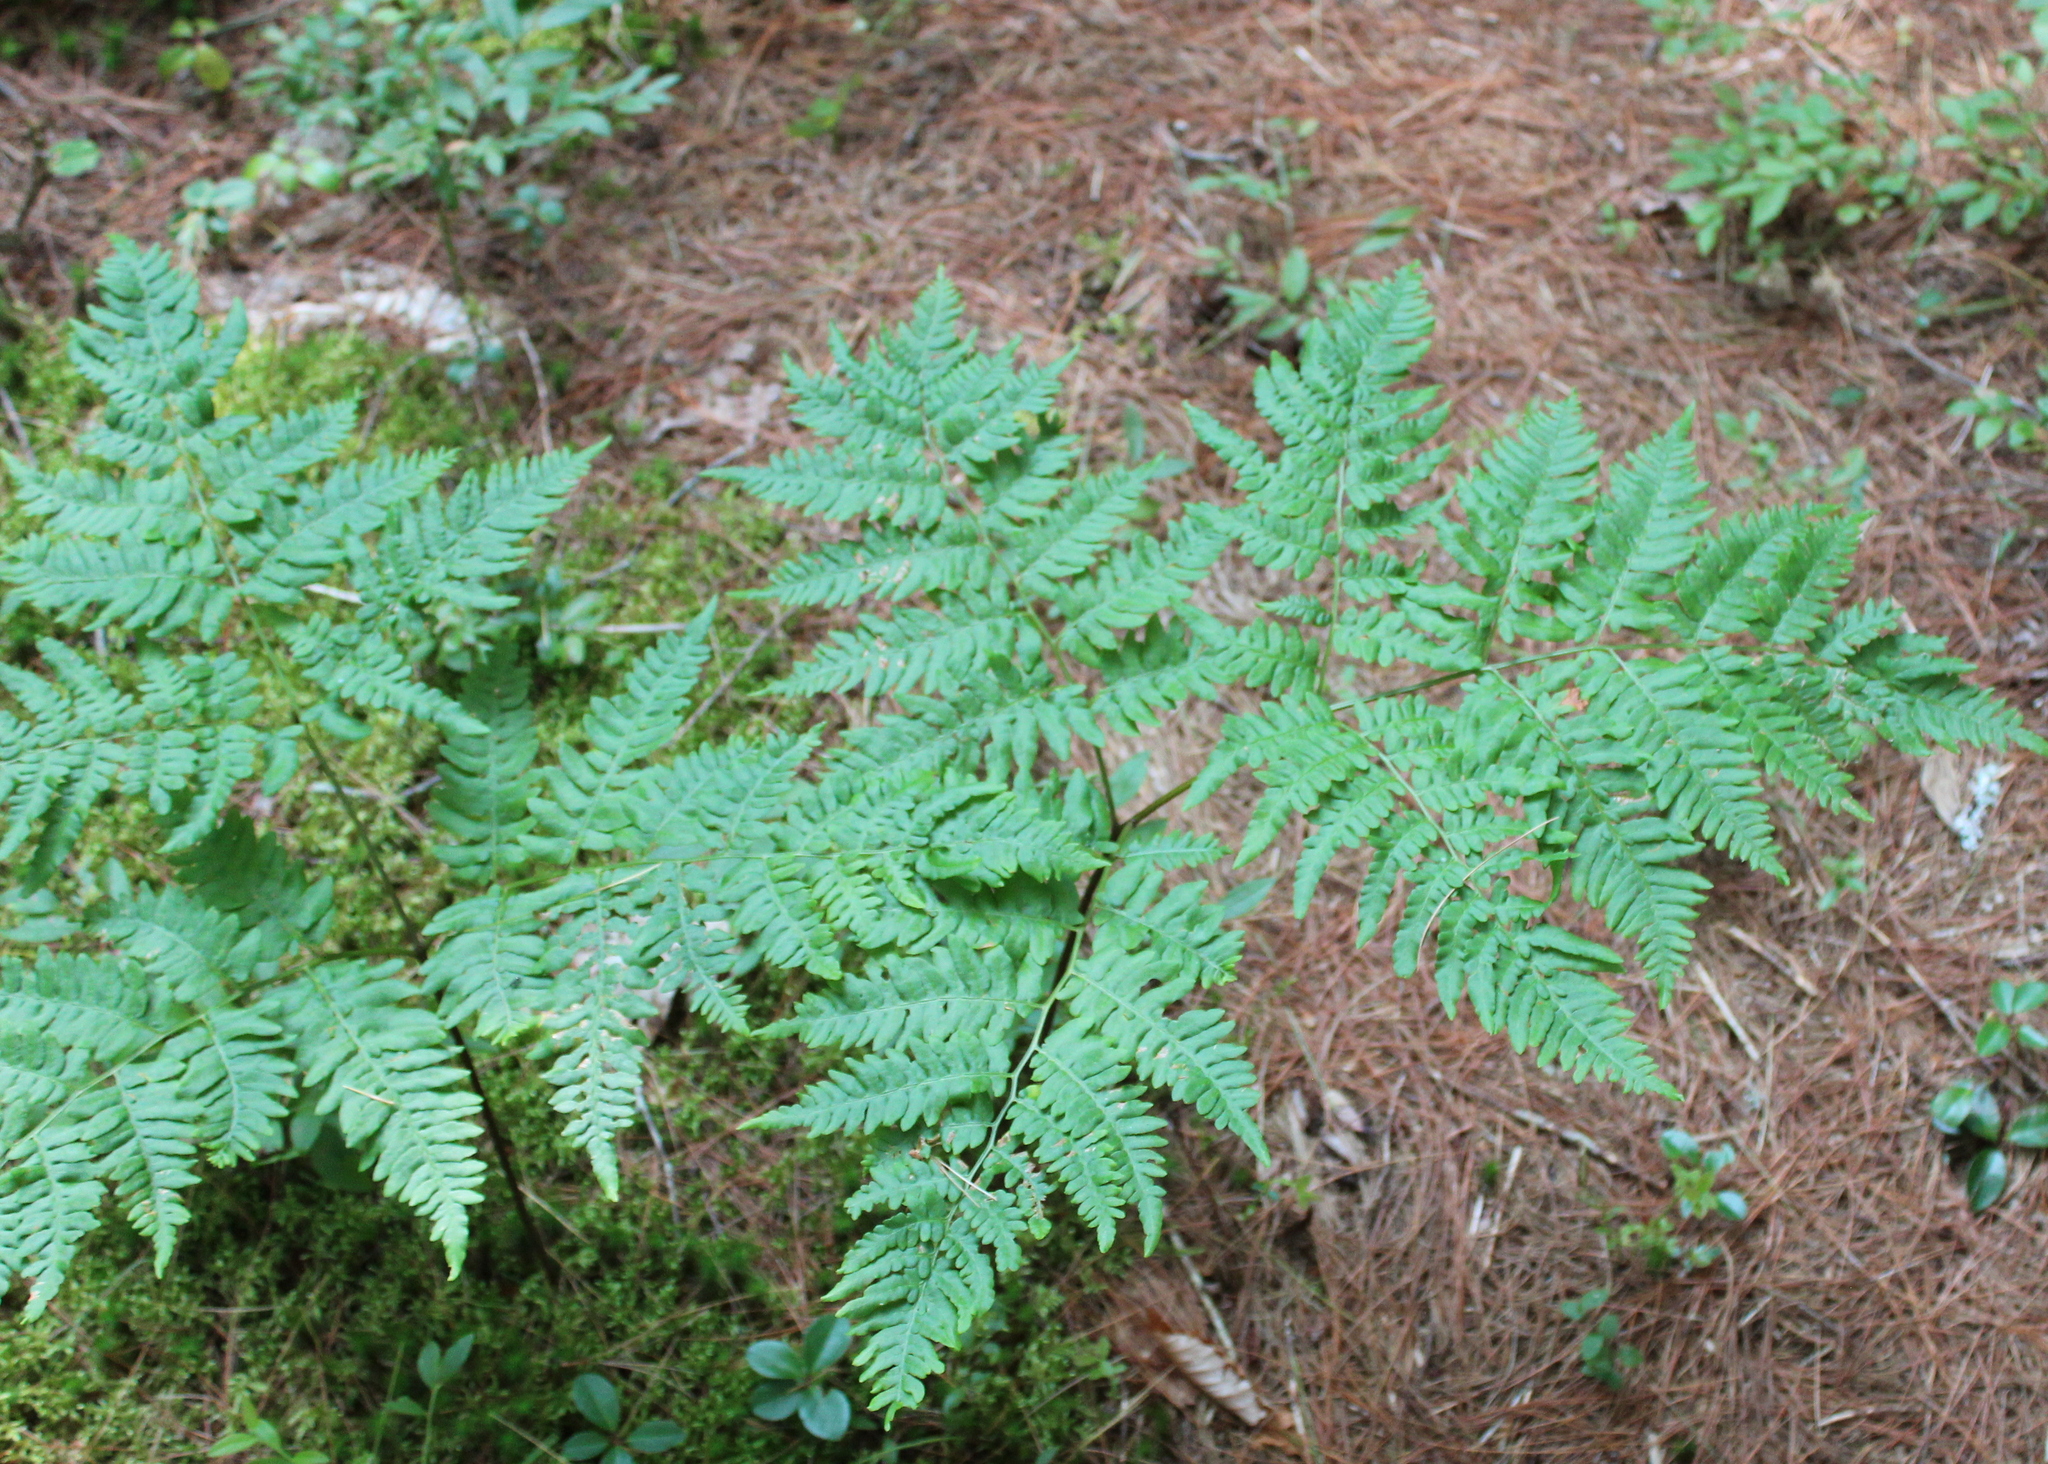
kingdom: Plantae
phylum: Tracheophyta
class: Polypodiopsida
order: Polypodiales
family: Dennstaedtiaceae
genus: Pteridium
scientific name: Pteridium aquilinum
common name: Bracken
